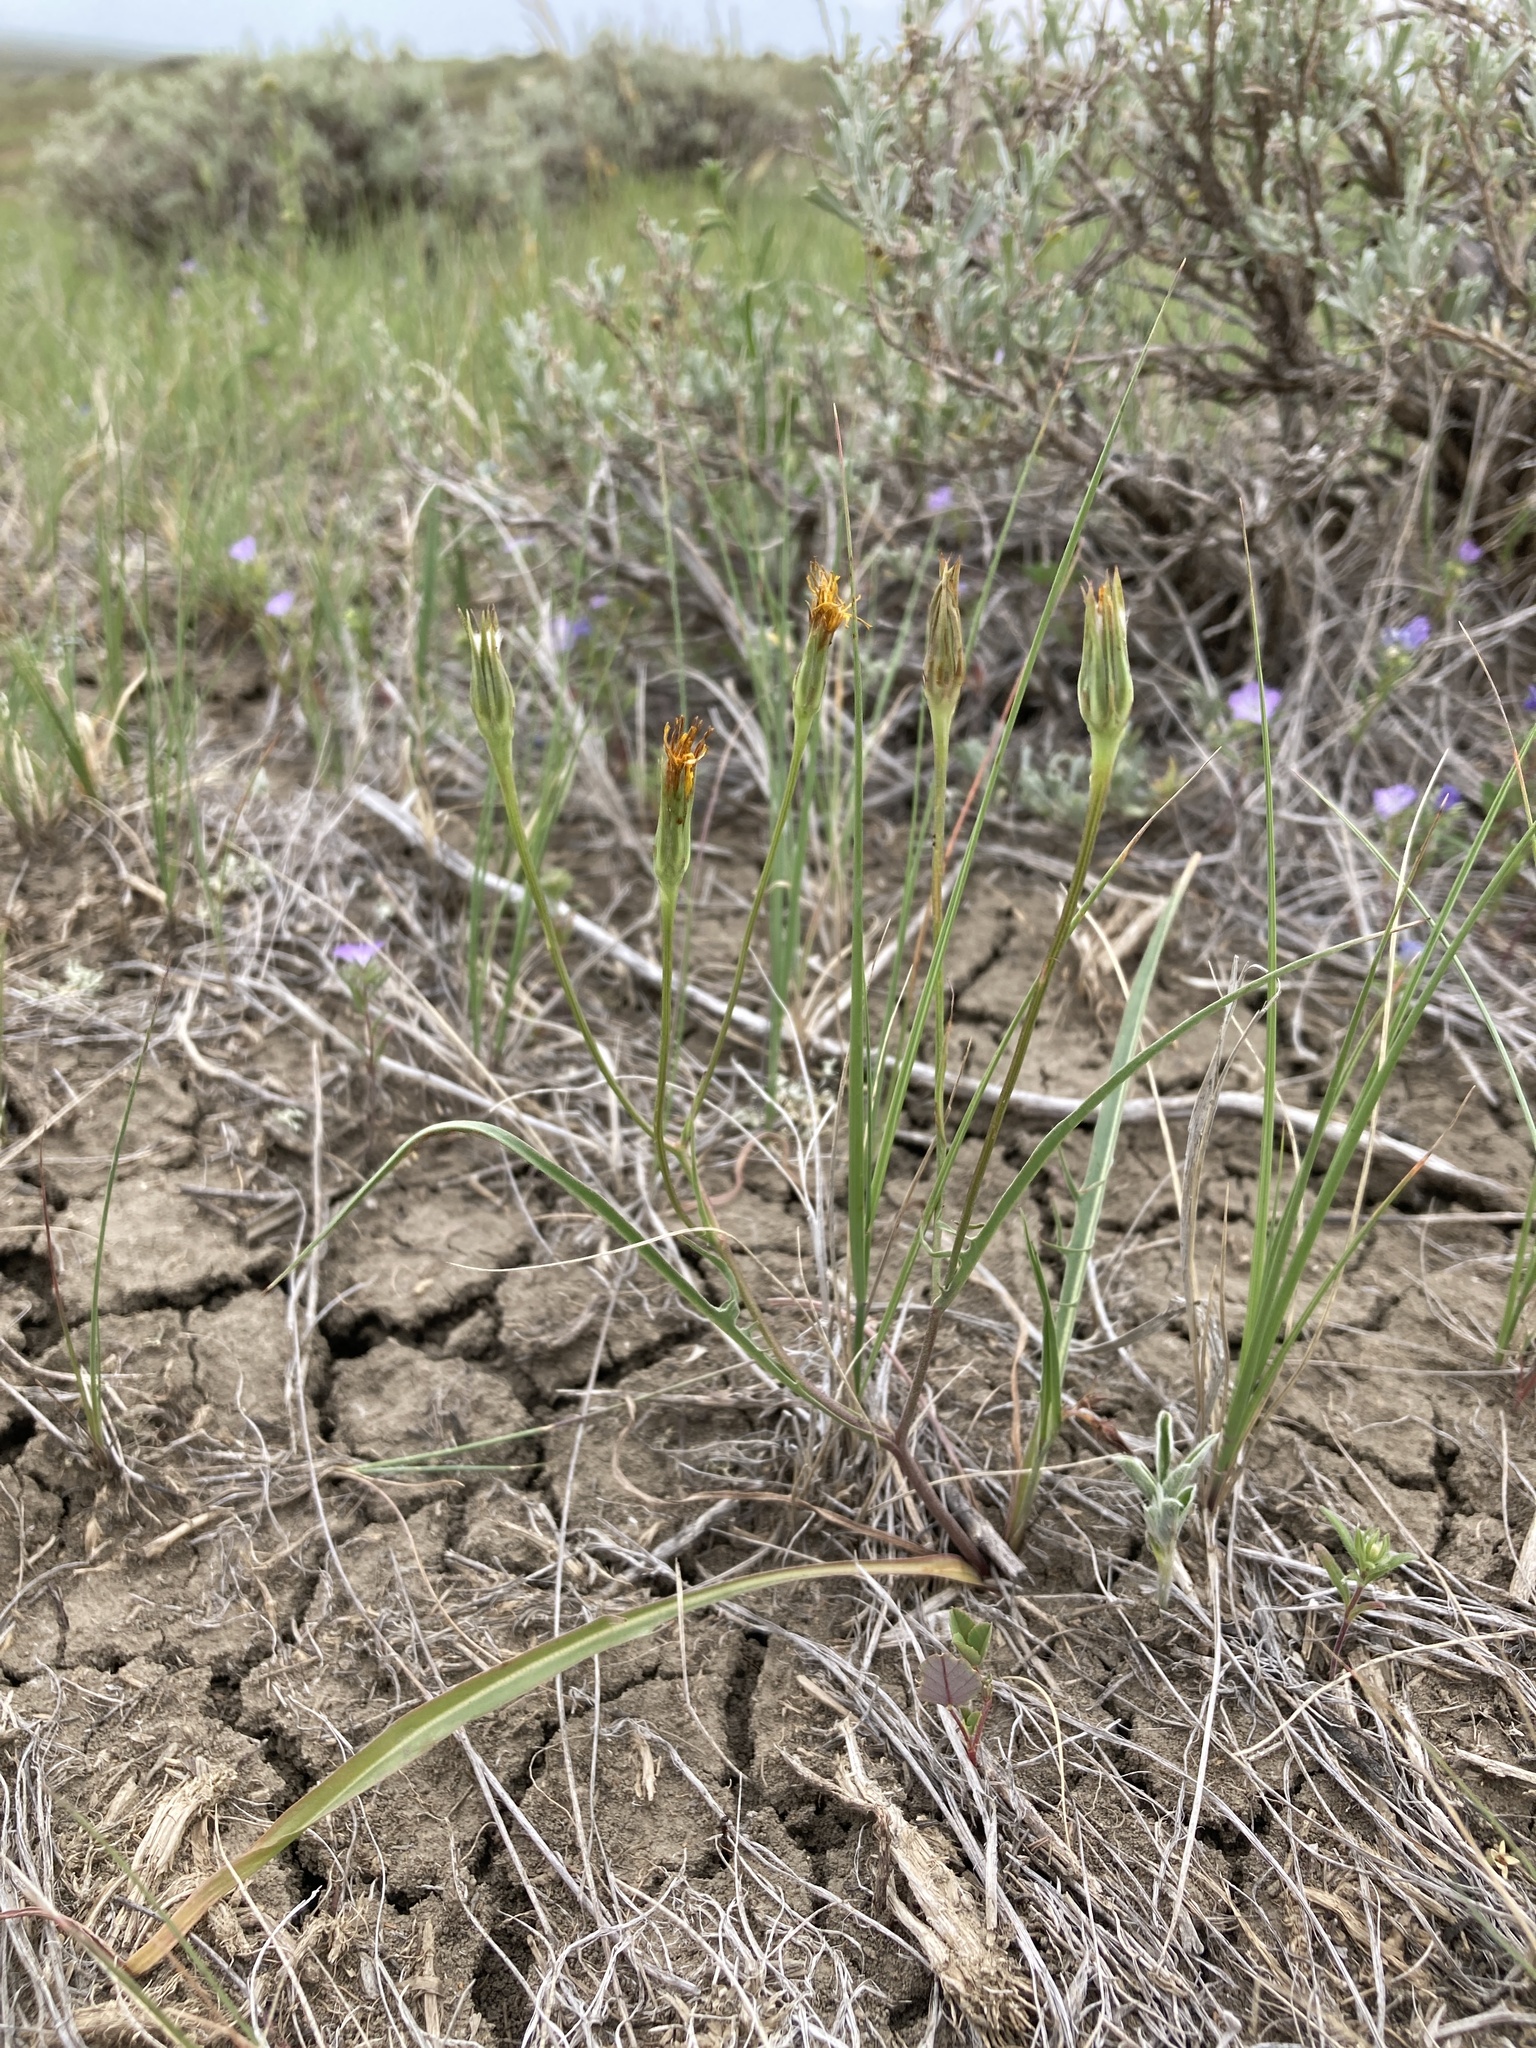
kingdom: Plantae
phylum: Tracheophyta
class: Magnoliopsida
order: Asterales
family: Asteraceae
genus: Microseris
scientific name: Microseris nutans
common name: Nodding microseris
